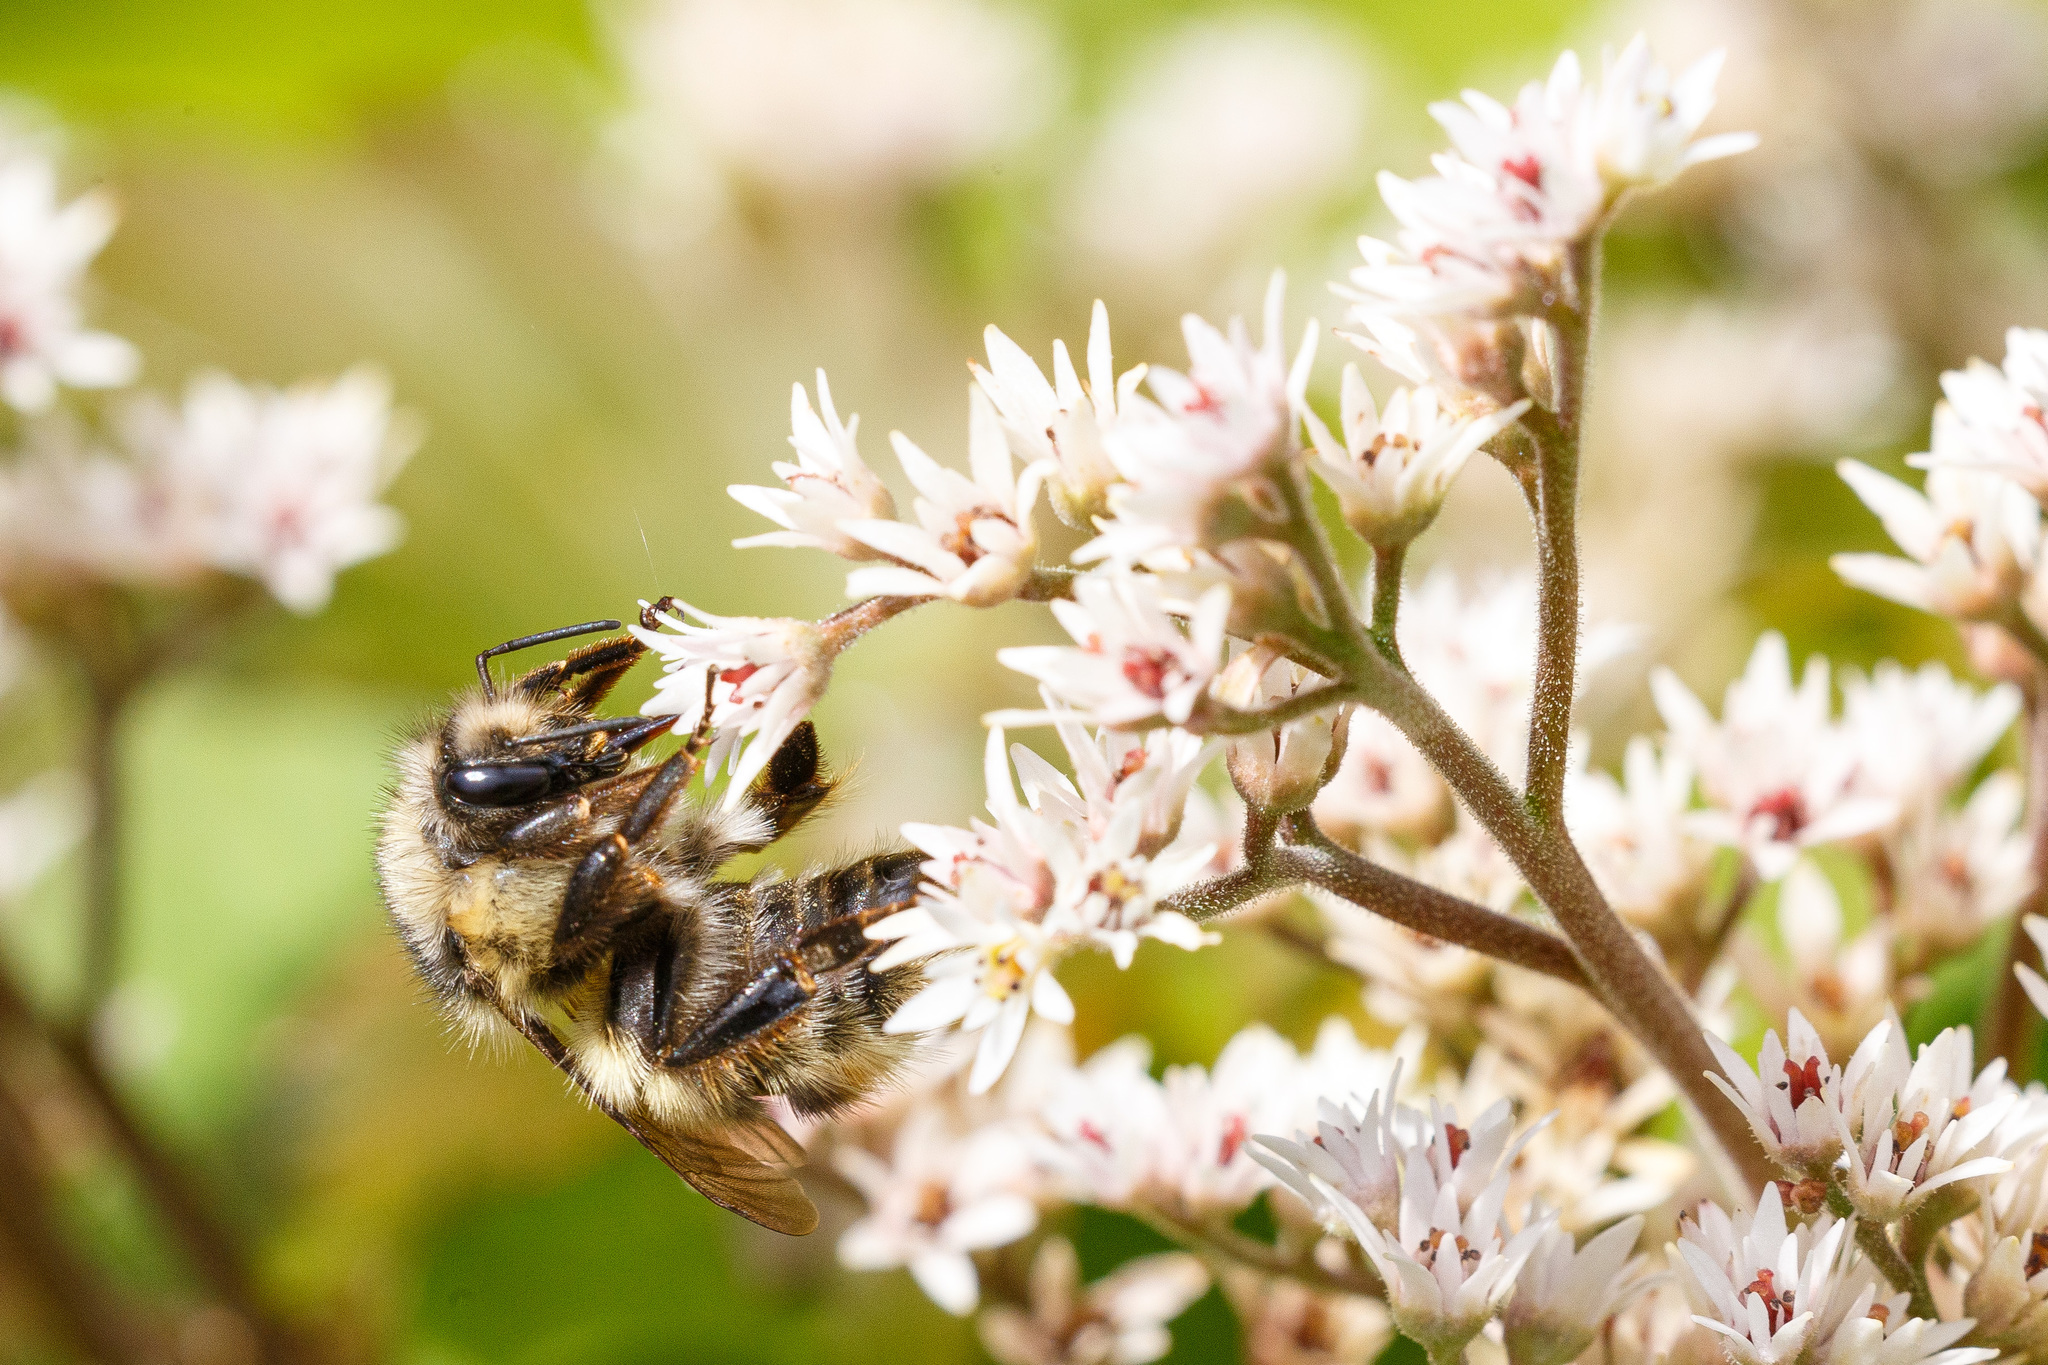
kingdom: Animalia
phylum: Arthropoda
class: Insecta
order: Hymenoptera
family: Apidae
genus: Bombus
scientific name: Bombus flavifrons
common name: Yellow head bumble bee
